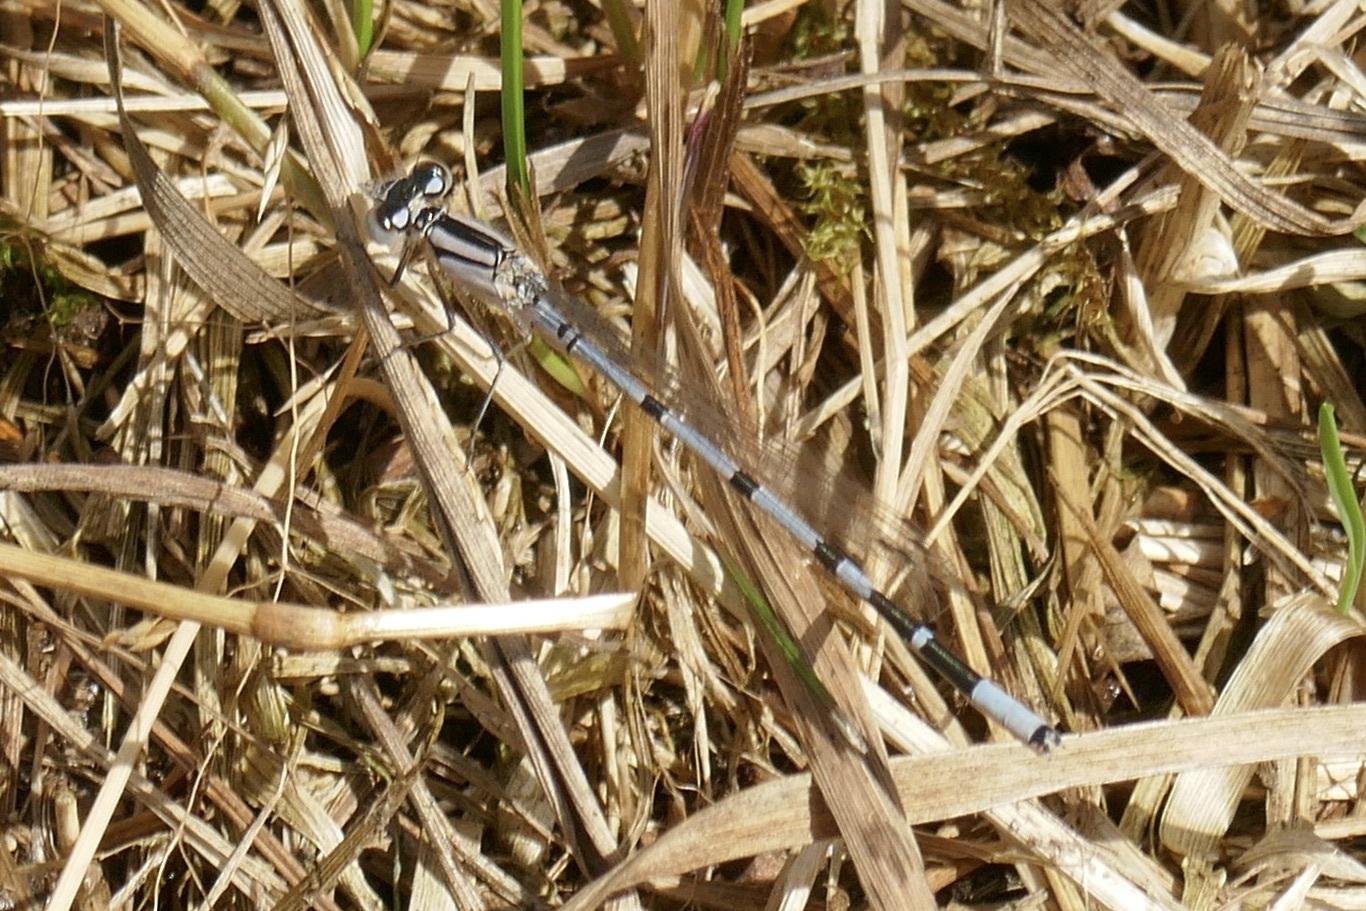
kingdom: Animalia
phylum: Arthropoda
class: Insecta
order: Odonata
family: Coenagrionidae
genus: Enallagma
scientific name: Enallagma cyathigerum
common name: Common blue damselfly
